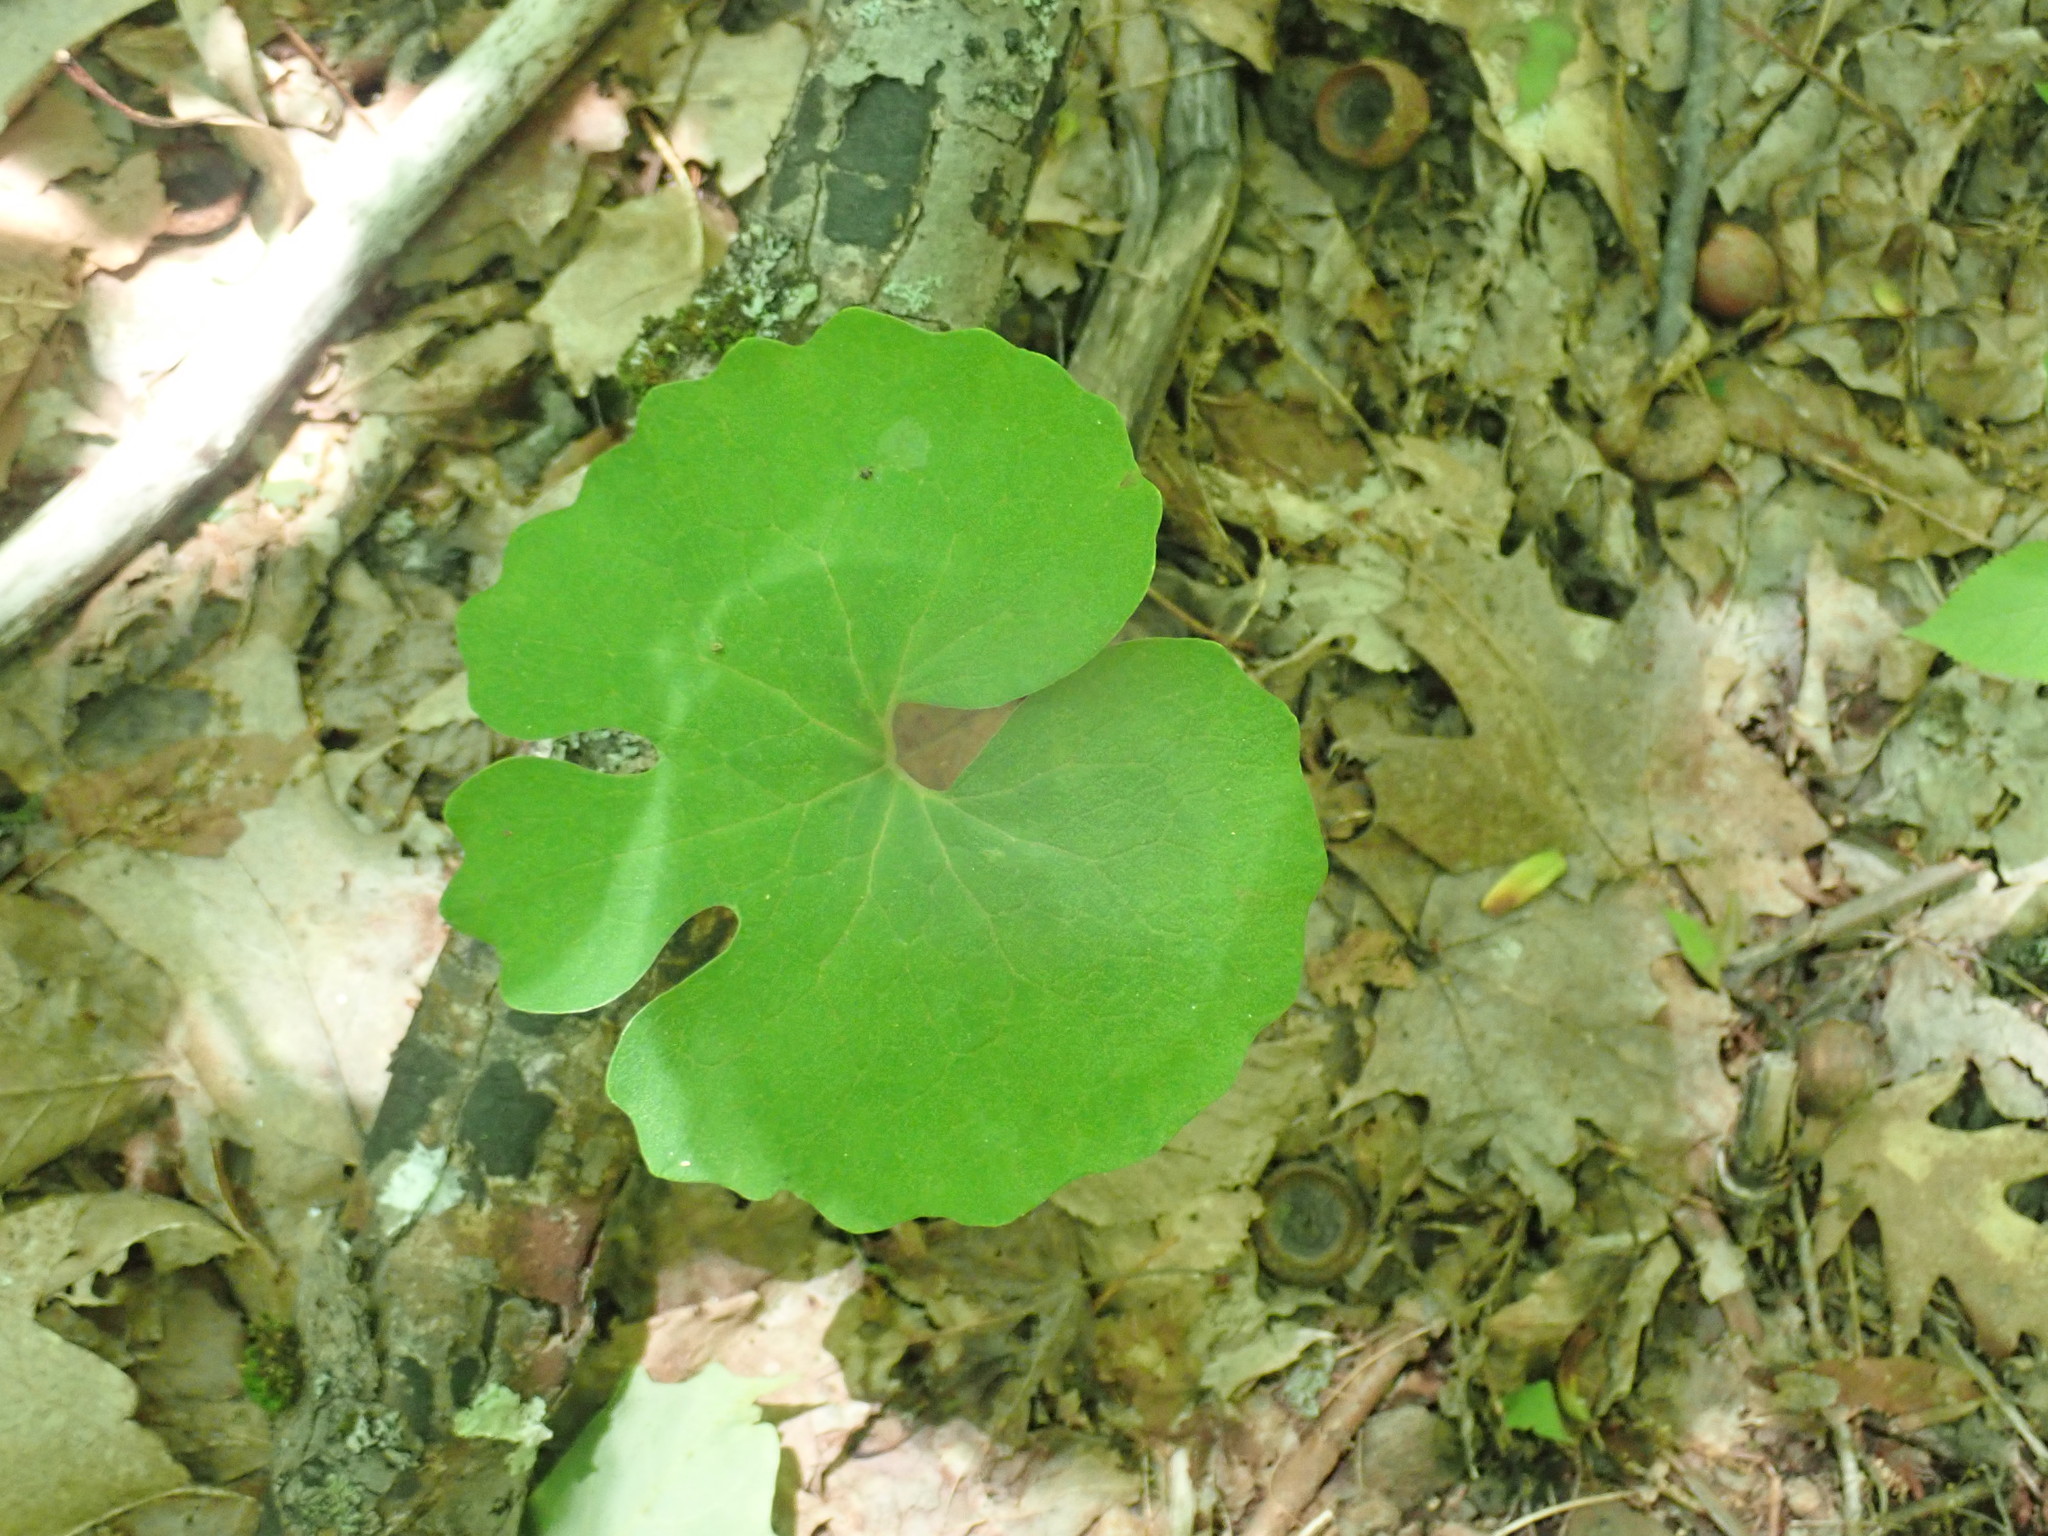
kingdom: Plantae
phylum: Tracheophyta
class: Magnoliopsida
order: Ranunculales
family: Papaveraceae
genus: Sanguinaria
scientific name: Sanguinaria canadensis
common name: Bloodroot
